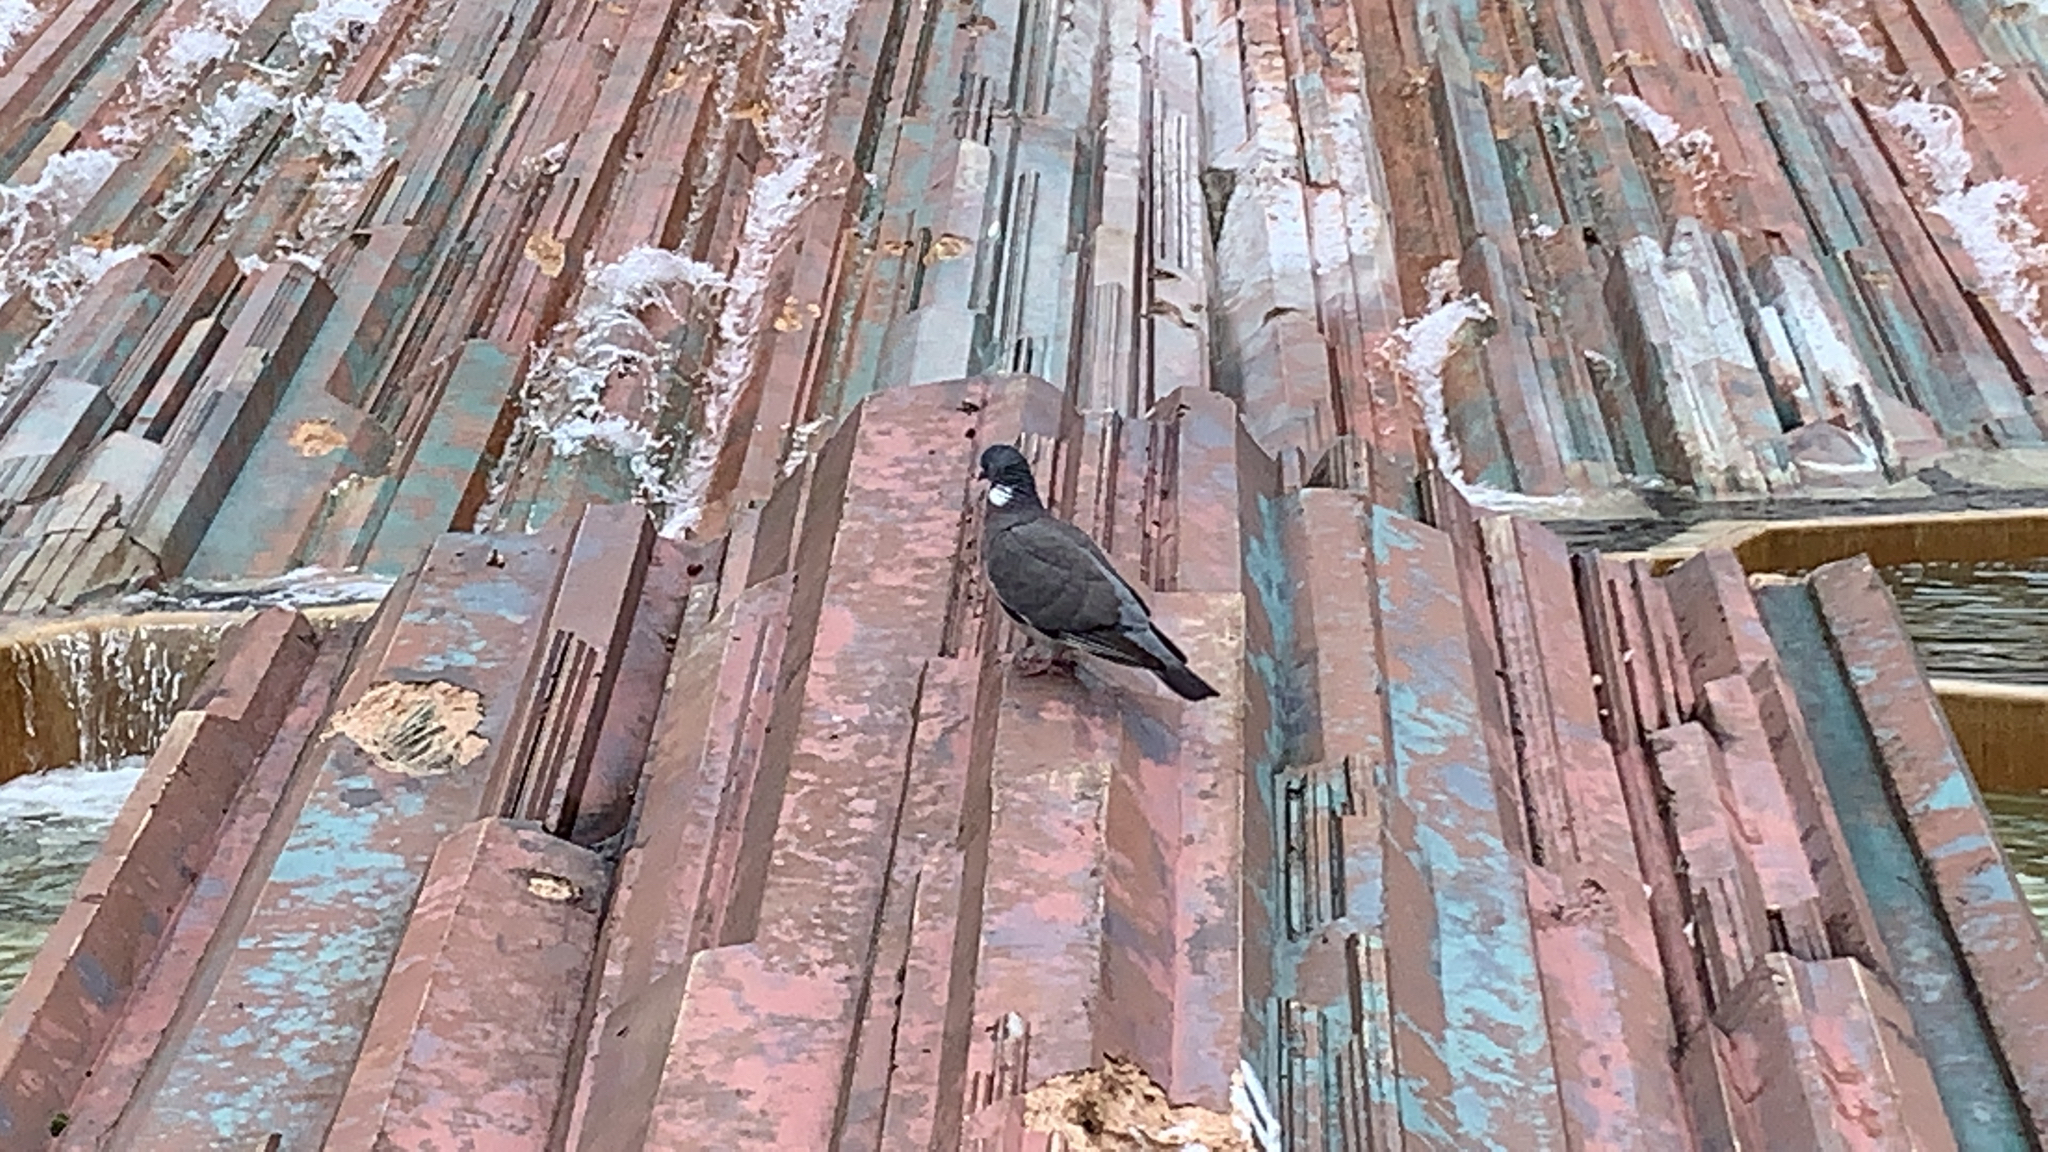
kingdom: Animalia
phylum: Chordata
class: Aves
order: Columbiformes
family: Columbidae
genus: Columba
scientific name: Columba palumbus
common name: Common wood pigeon
